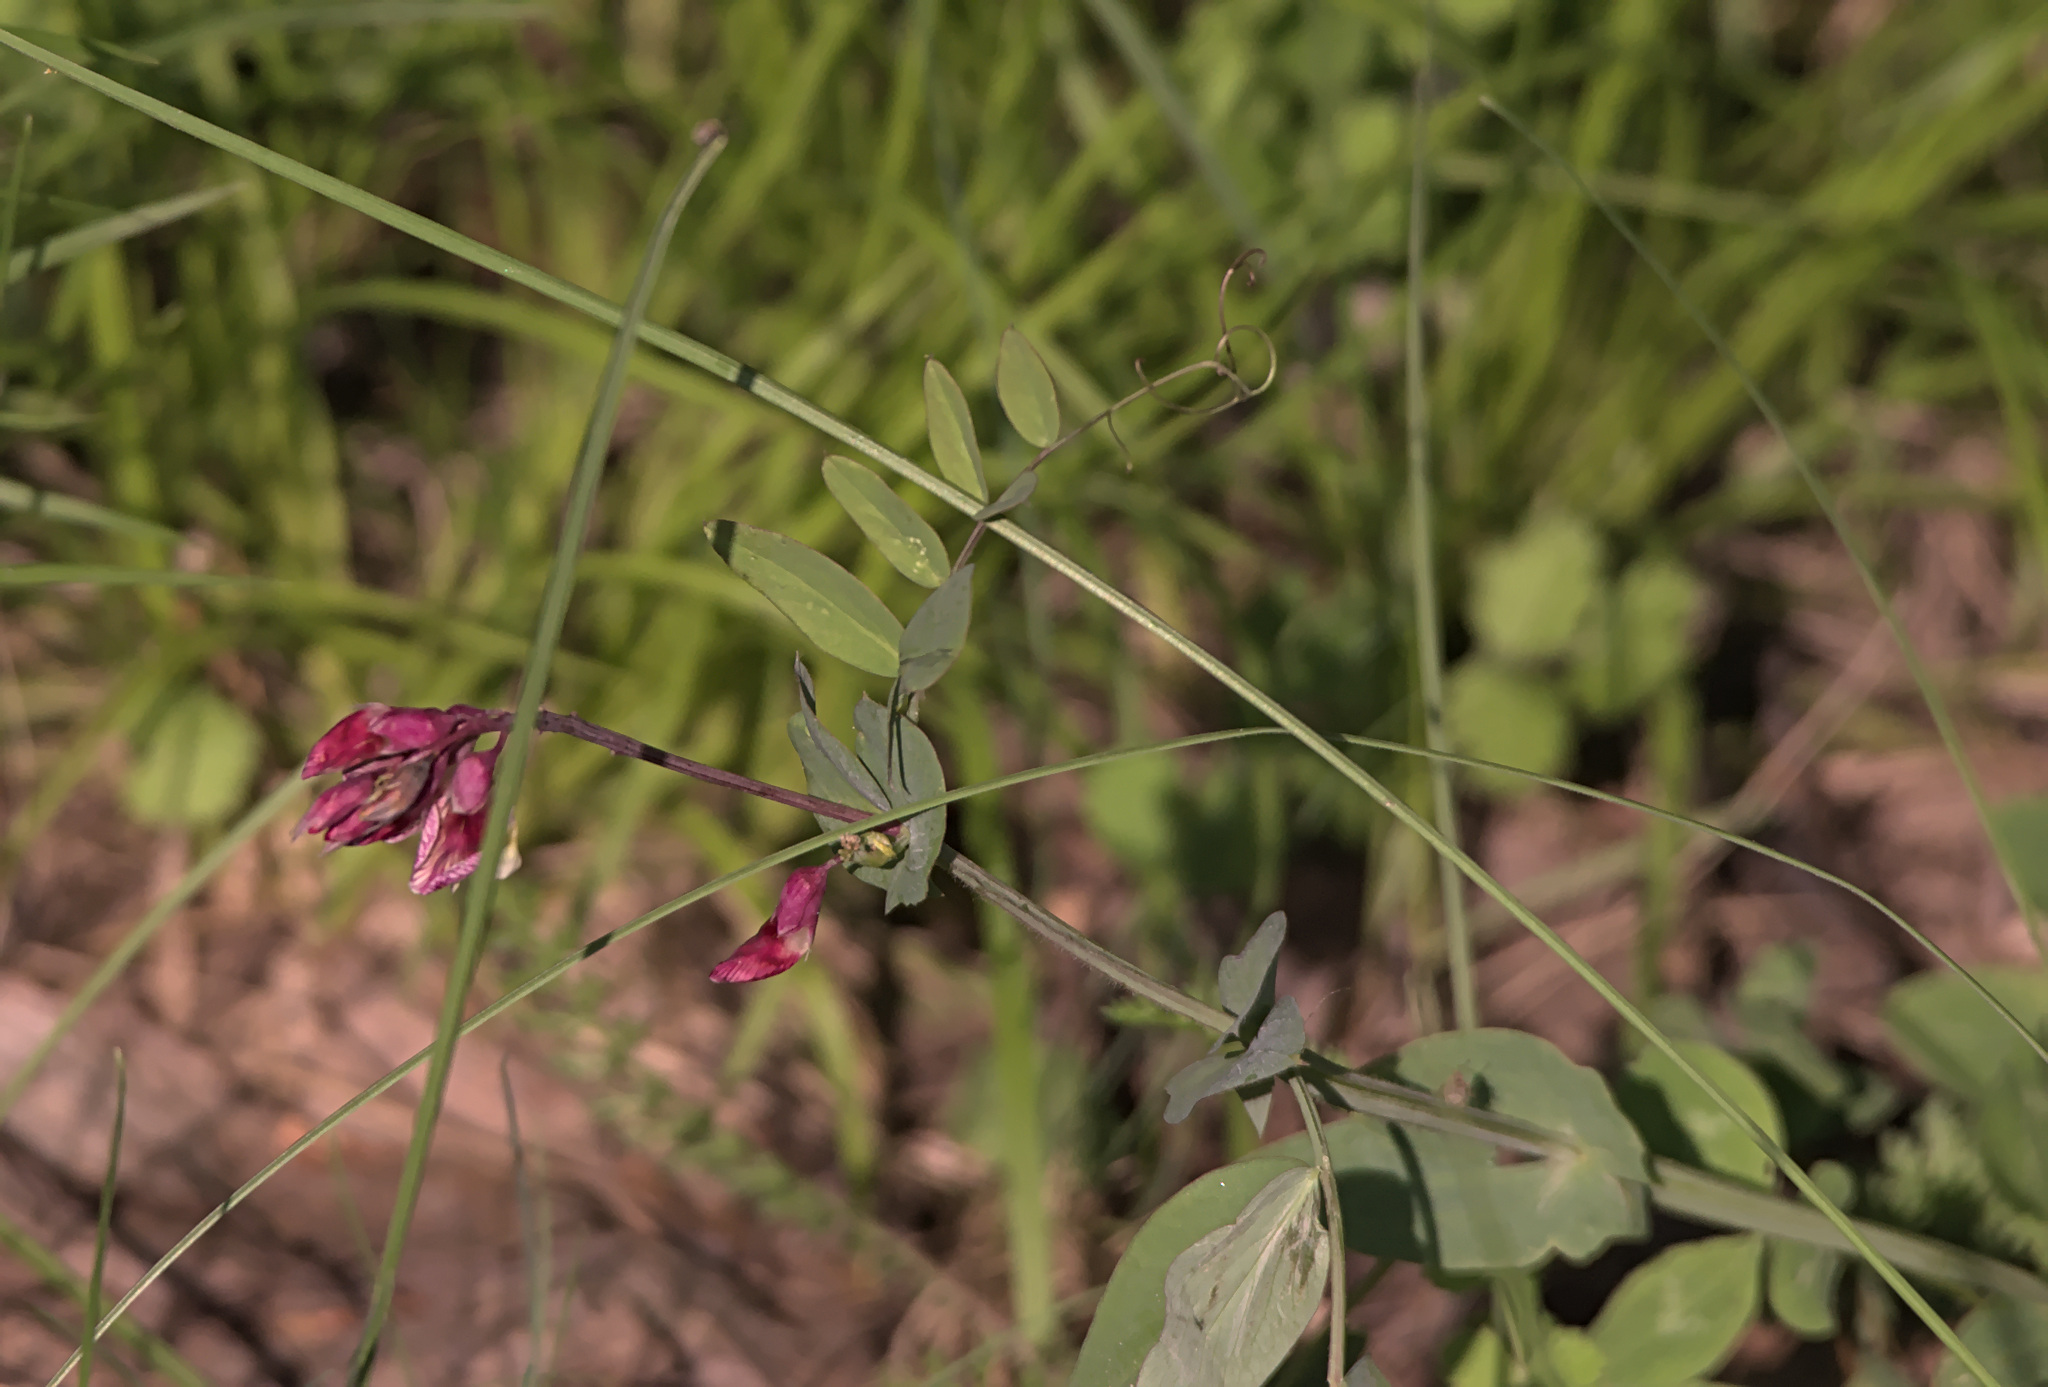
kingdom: Plantae
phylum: Tracheophyta
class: Magnoliopsida
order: Fabales
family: Fabaceae
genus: Lathyrus
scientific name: Lathyrus pisiformis
